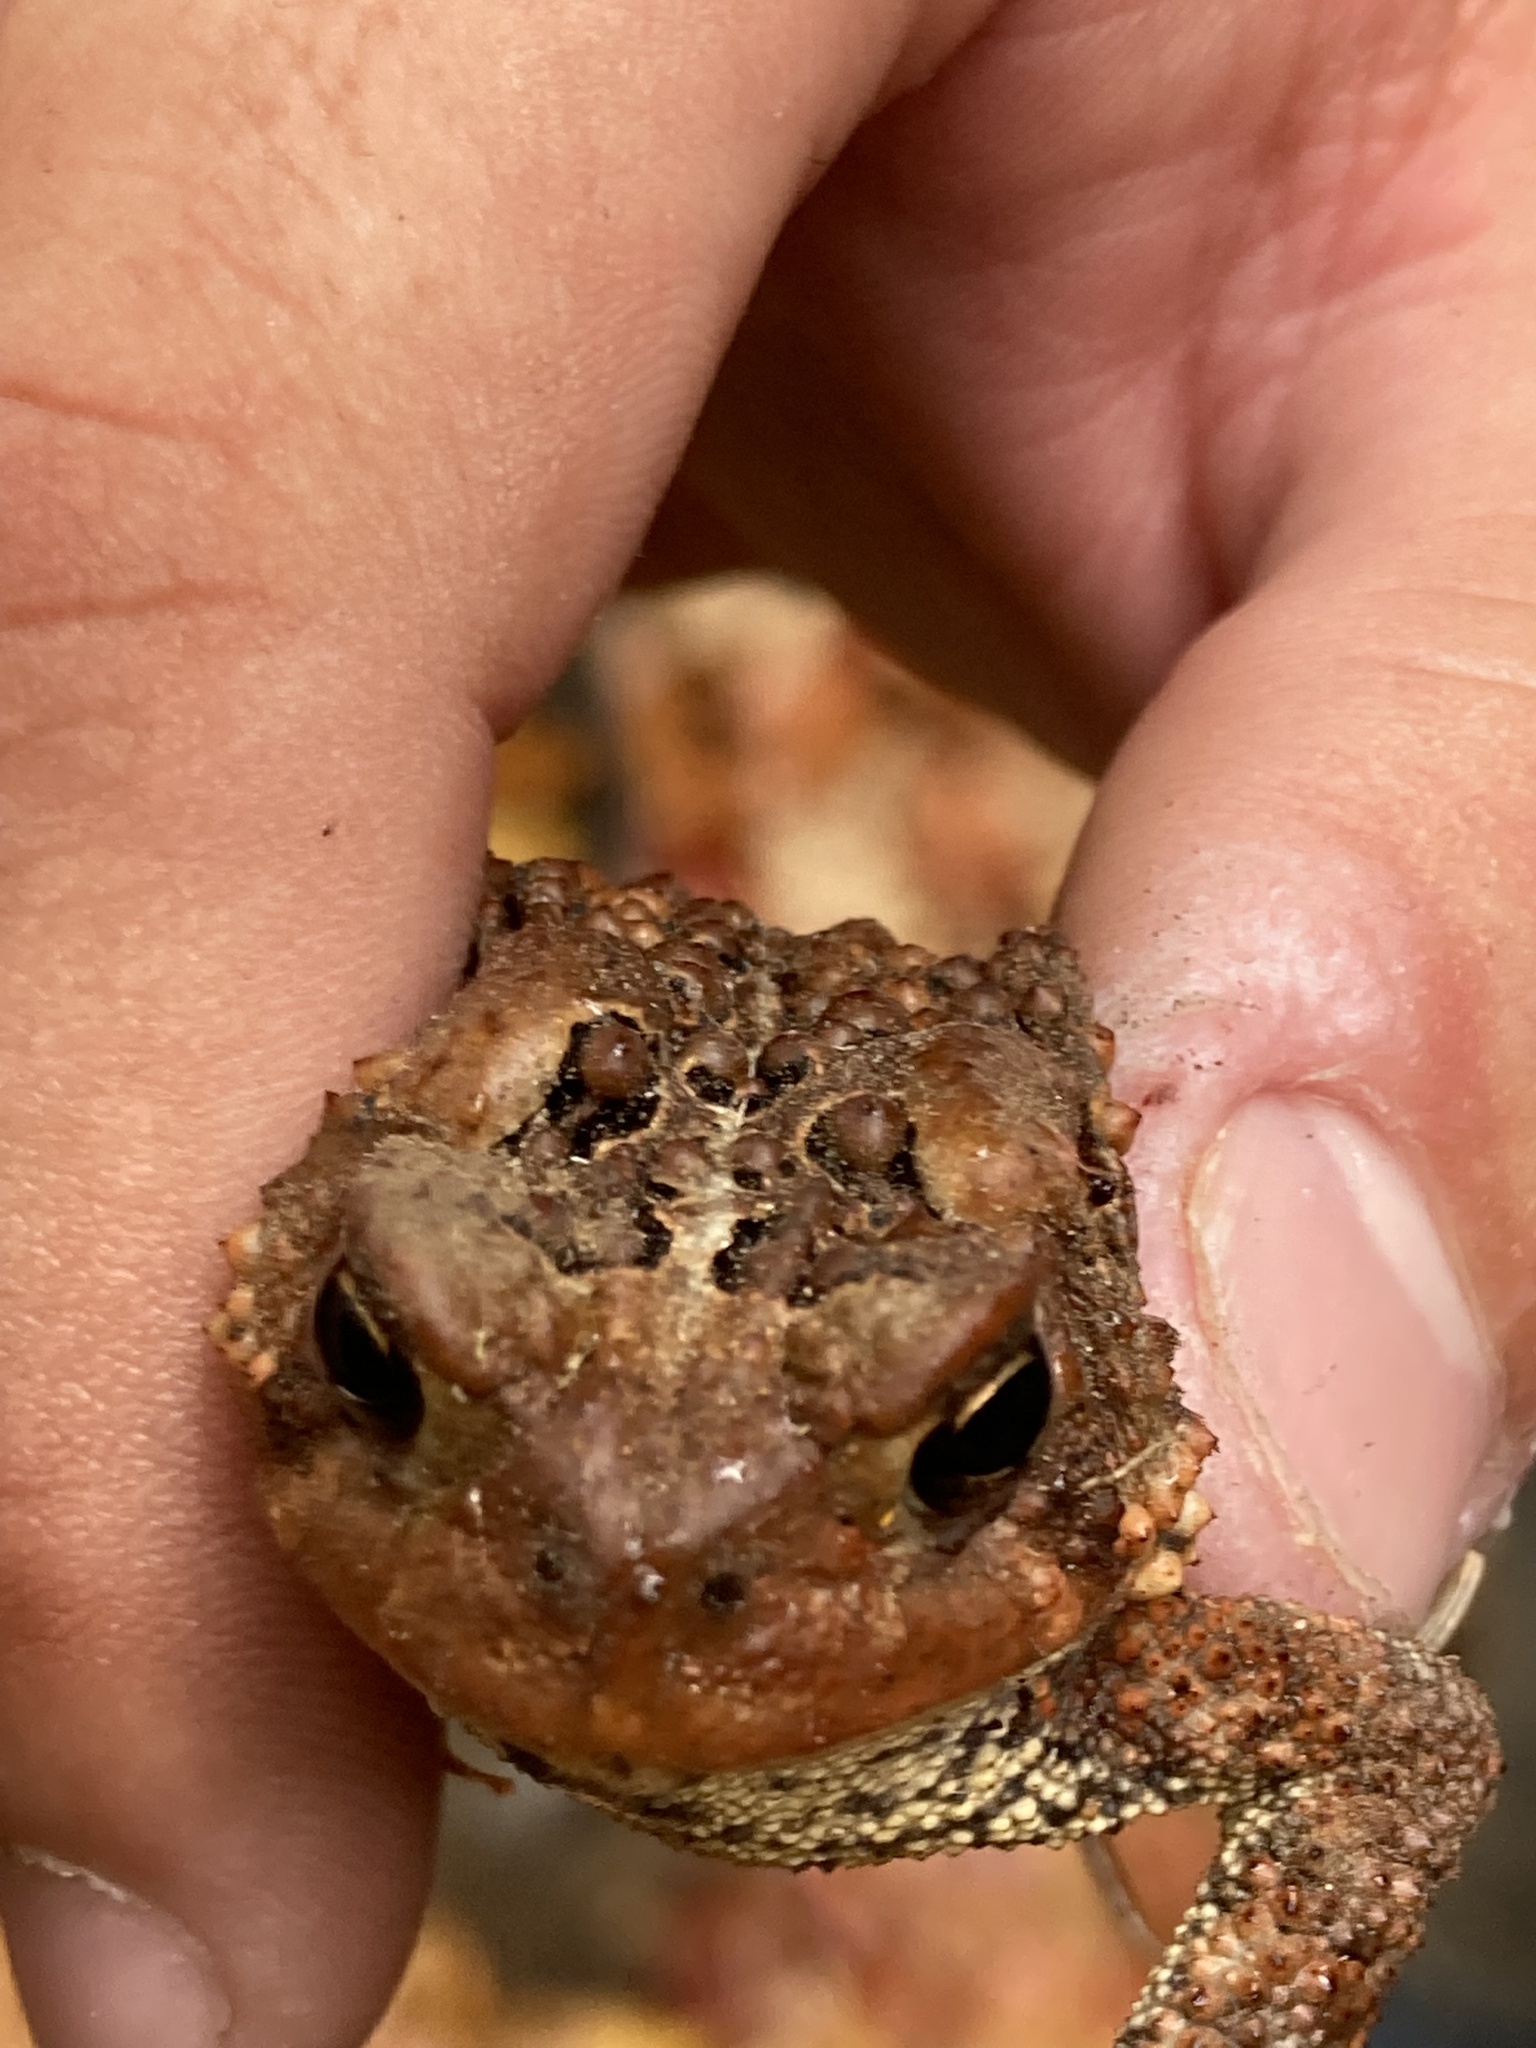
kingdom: Animalia
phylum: Chordata
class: Amphibia
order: Anura
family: Bufonidae
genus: Anaxyrus
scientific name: Anaxyrus americanus
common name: American toad
